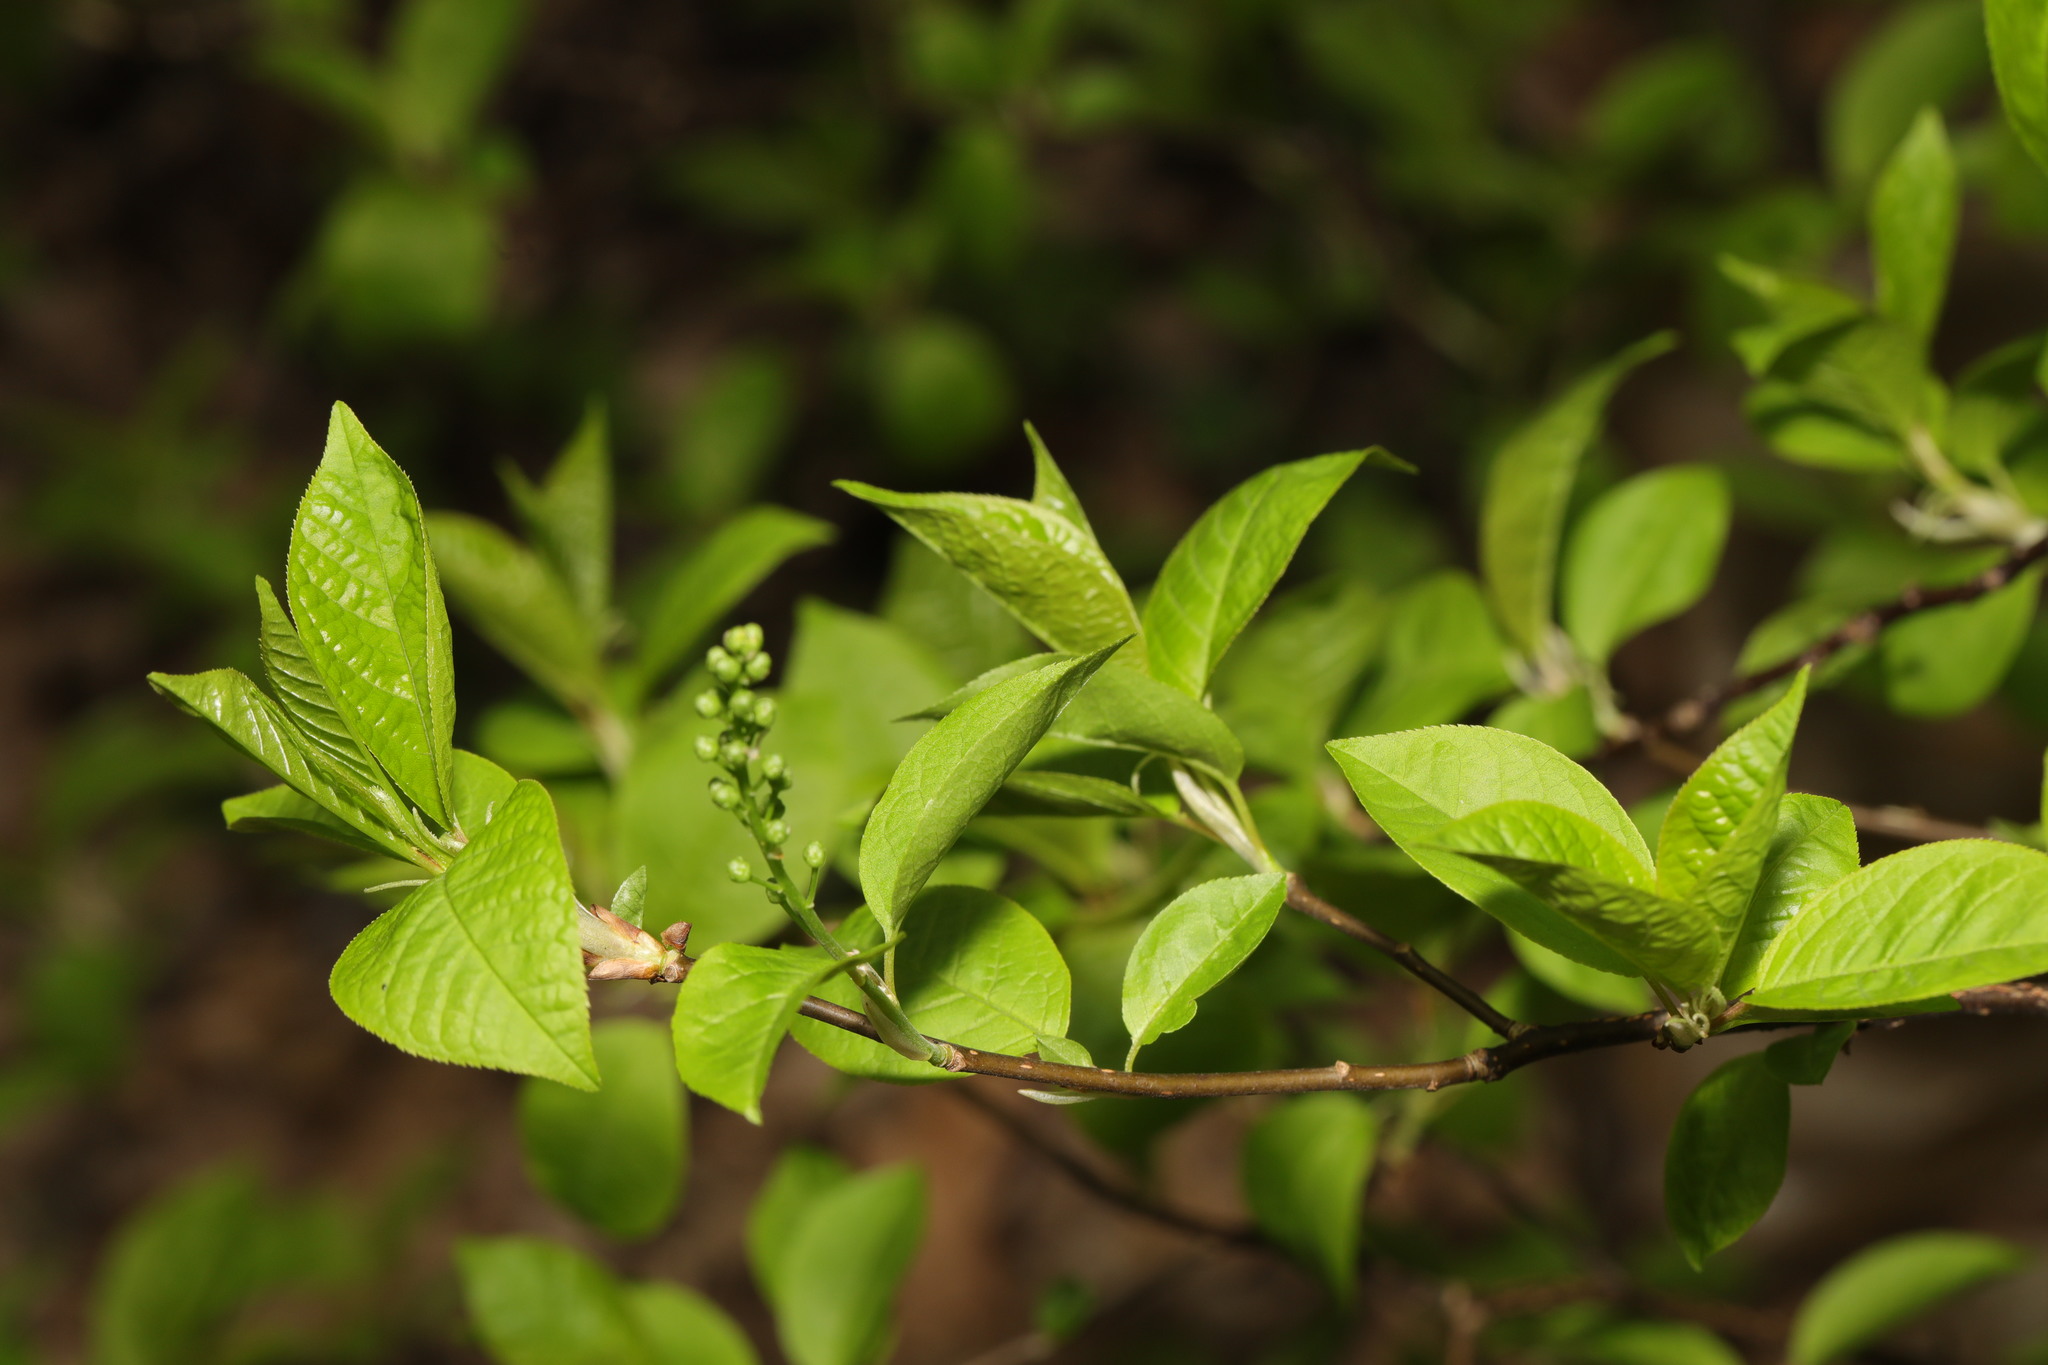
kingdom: Plantae
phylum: Tracheophyta
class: Magnoliopsida
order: Rosales
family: Rosaceae
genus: Prunus
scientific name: Prunus padus
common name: Bird cherry
